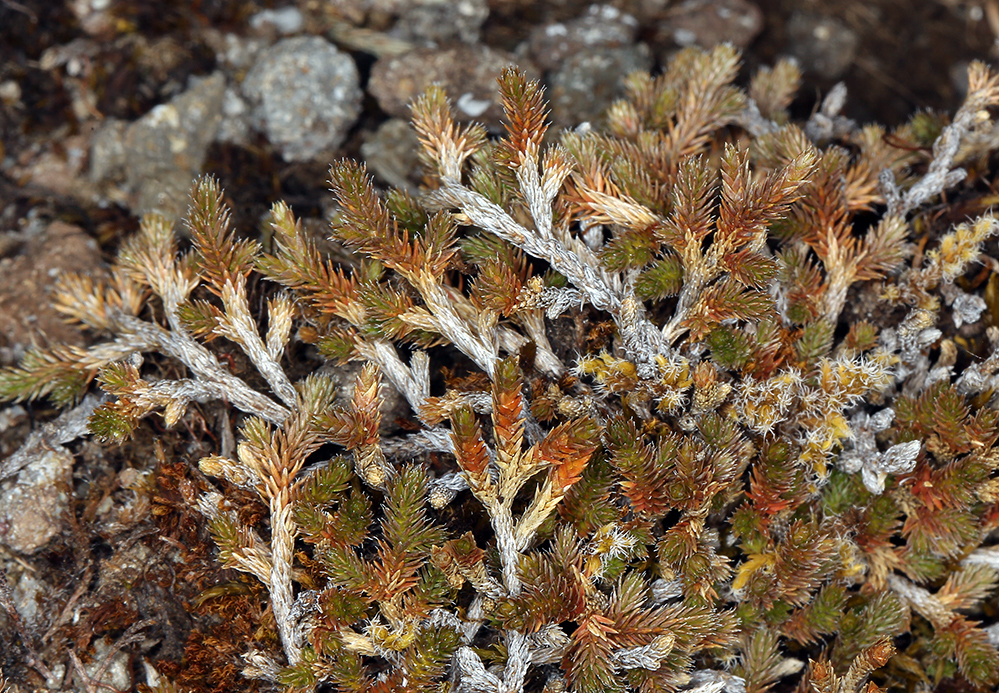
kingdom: Plantae
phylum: Tracheophyta
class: Lycopodiopsida
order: Selaginellales
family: Selaginellaceae
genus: Selaginella
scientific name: Selaginella wallacei
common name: Wallace's selaginella
